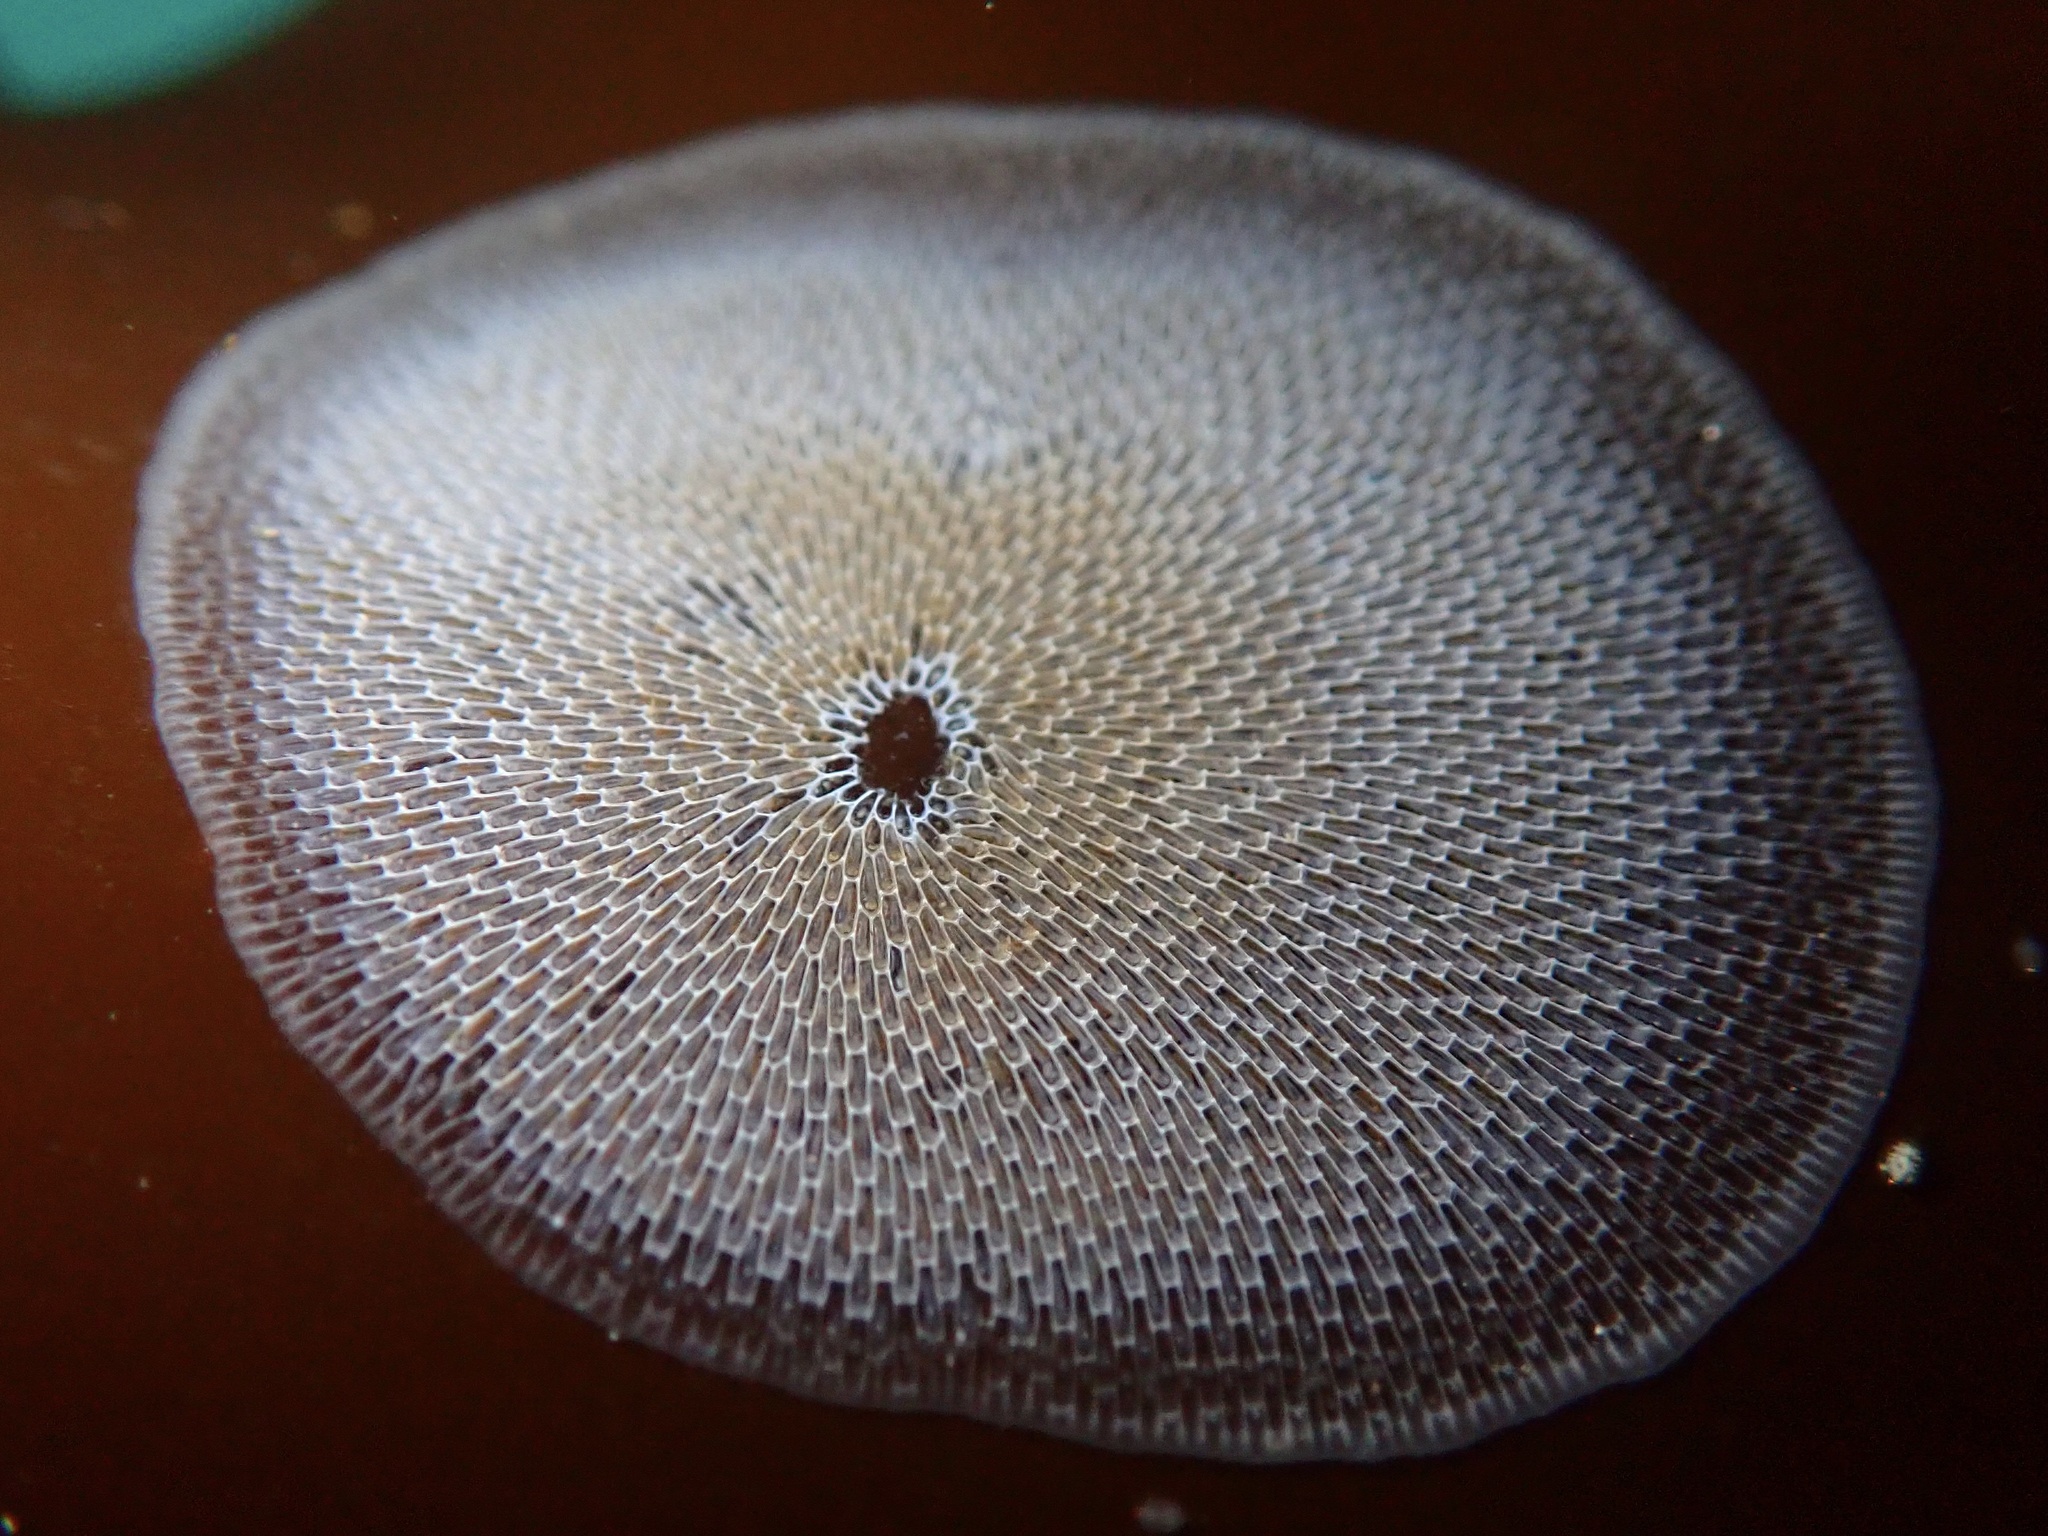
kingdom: Animalia
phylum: Bryozoa
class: Gymnolaemata
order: Cheilostomatida
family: Membraniporidae
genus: Membranipora
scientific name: Membranipora membranacea
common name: Sea mat
